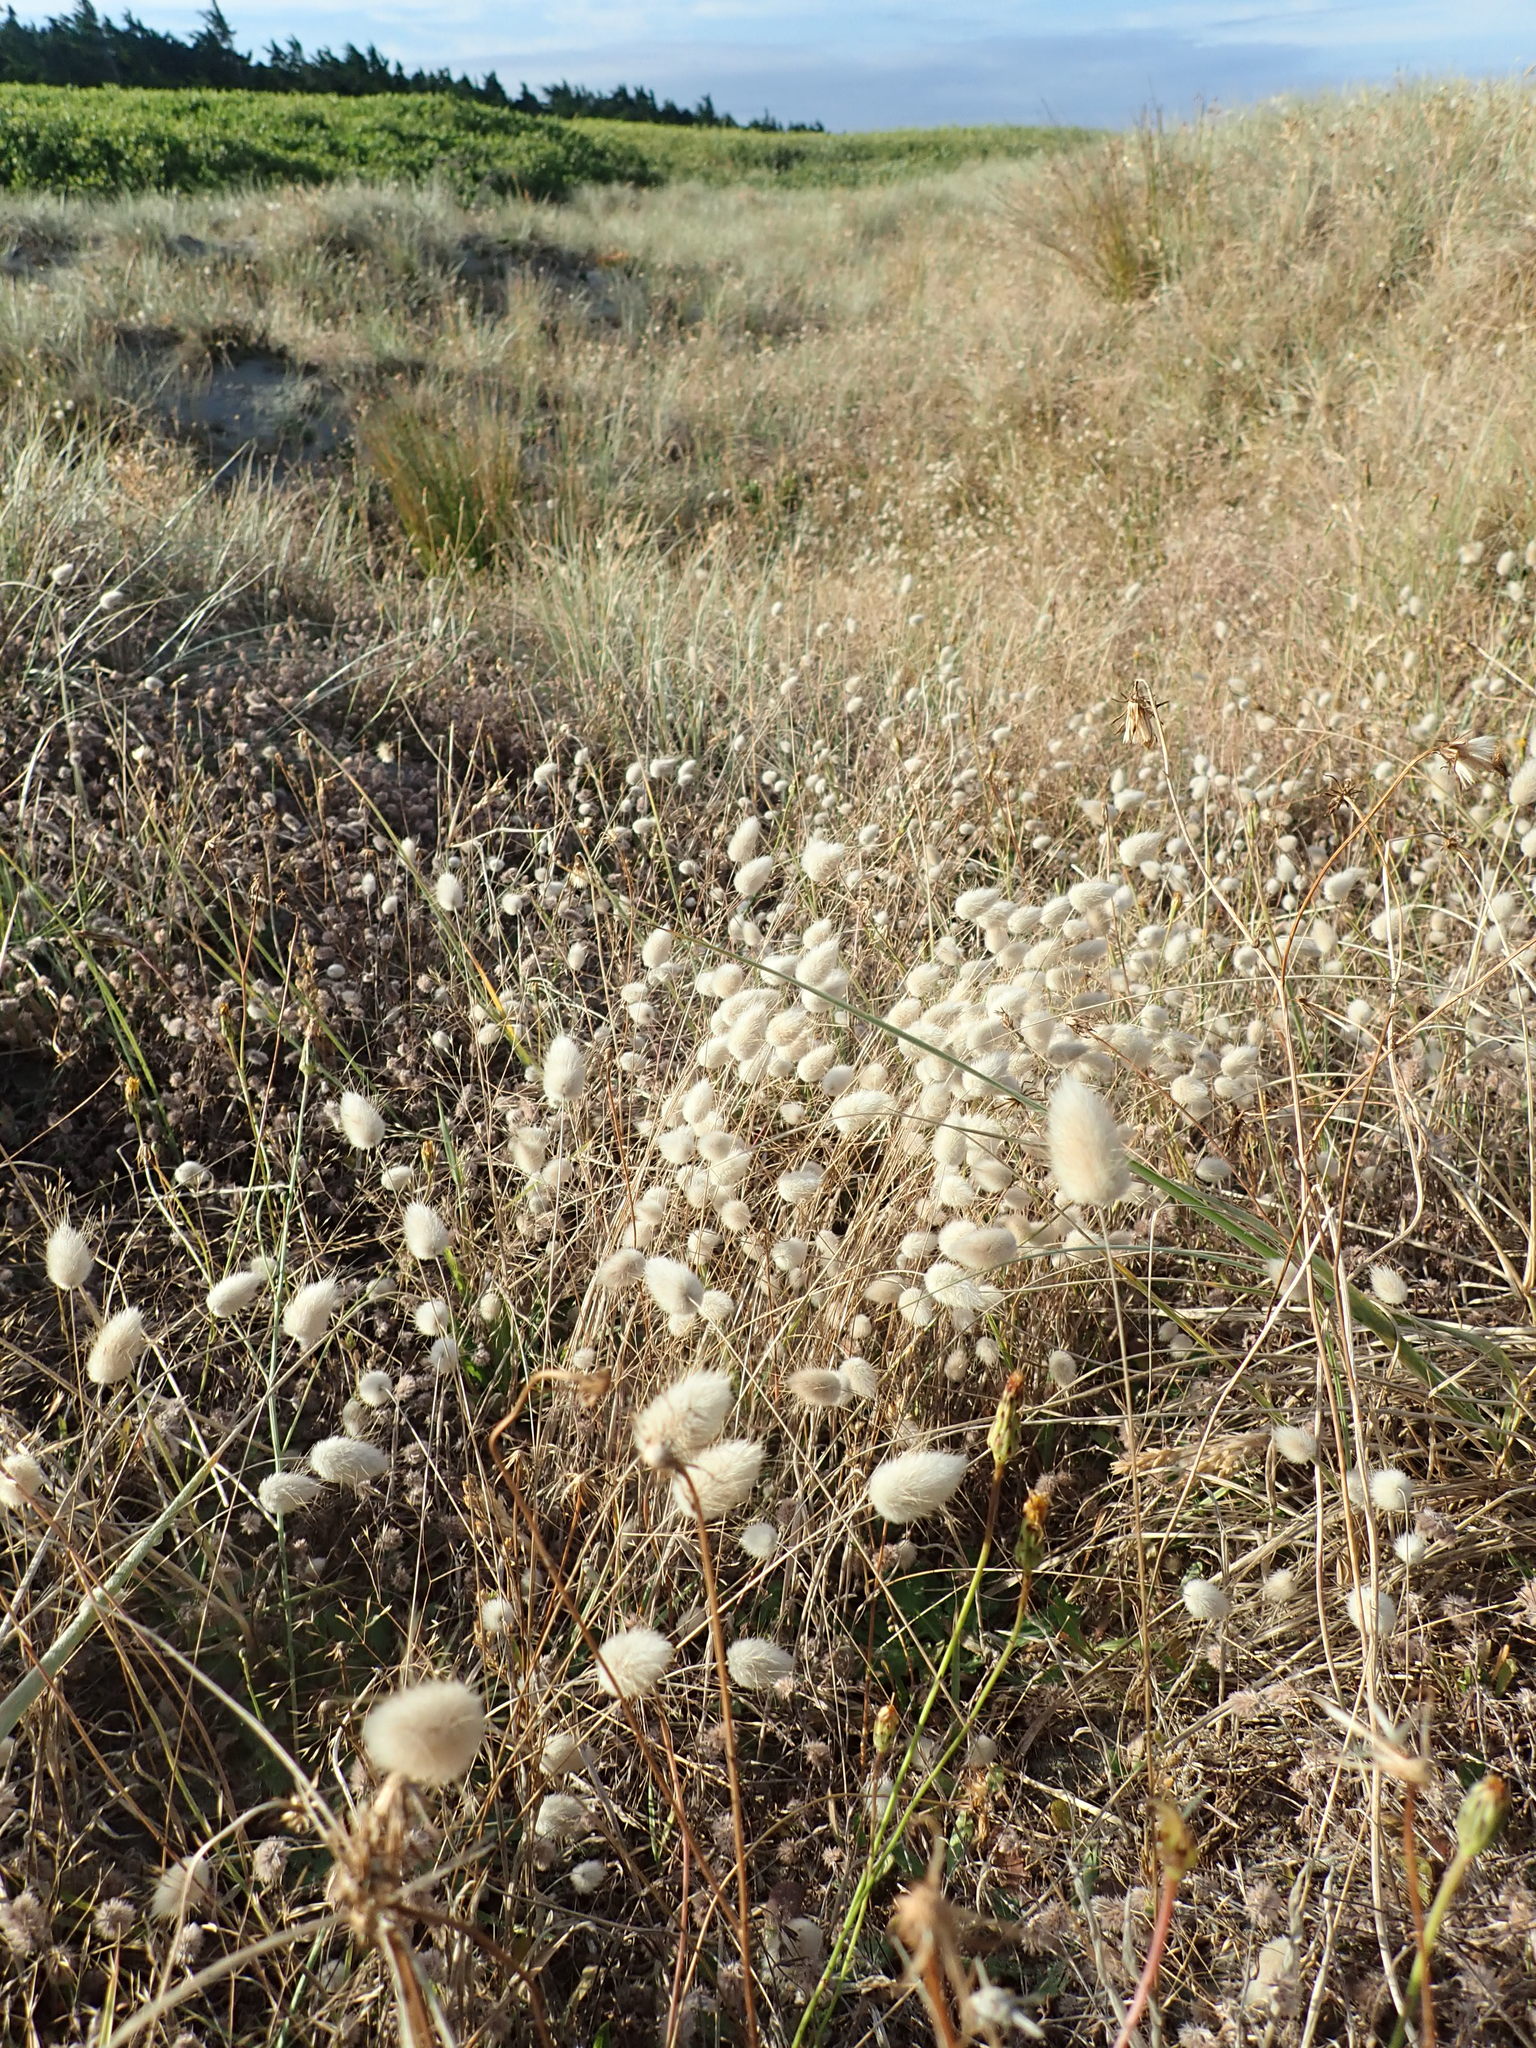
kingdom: Plantae
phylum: Tracheophyta
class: Liliopsida
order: Poales
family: Poaceae
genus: Lagurus
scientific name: Lagurus ovatus
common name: Hare's-tail
